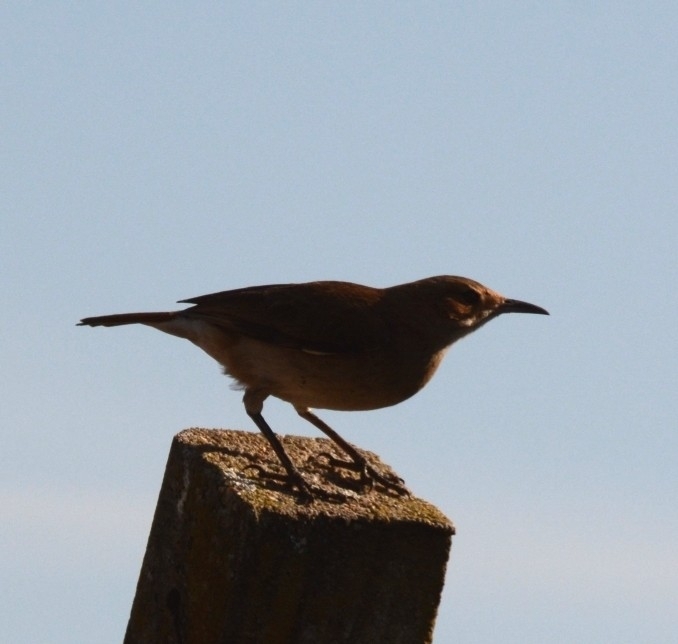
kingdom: Animalia
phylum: Chordata
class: Aves
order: Passeriformes
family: Furnariidae
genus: Furnarius
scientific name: Furnarius rufus
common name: Rufous hornero
